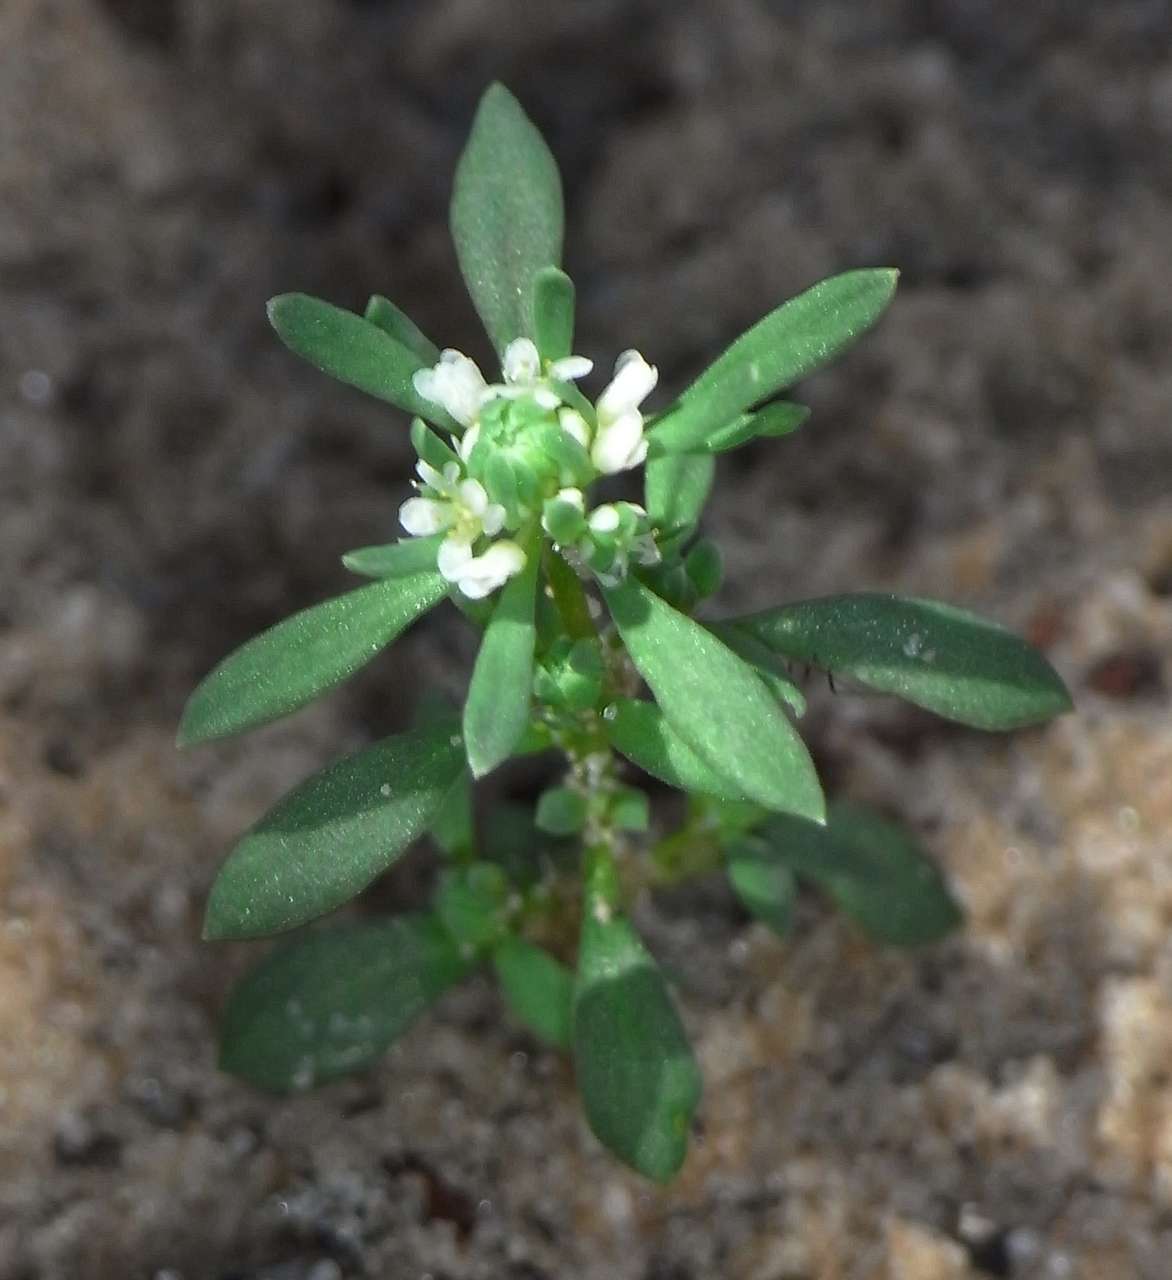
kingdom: Plantae
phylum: Tracheophyta
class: Magnoliopsida
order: Malpighiales
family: Phyllanthaceae
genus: Poranthera
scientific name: Poranthera microphylla
